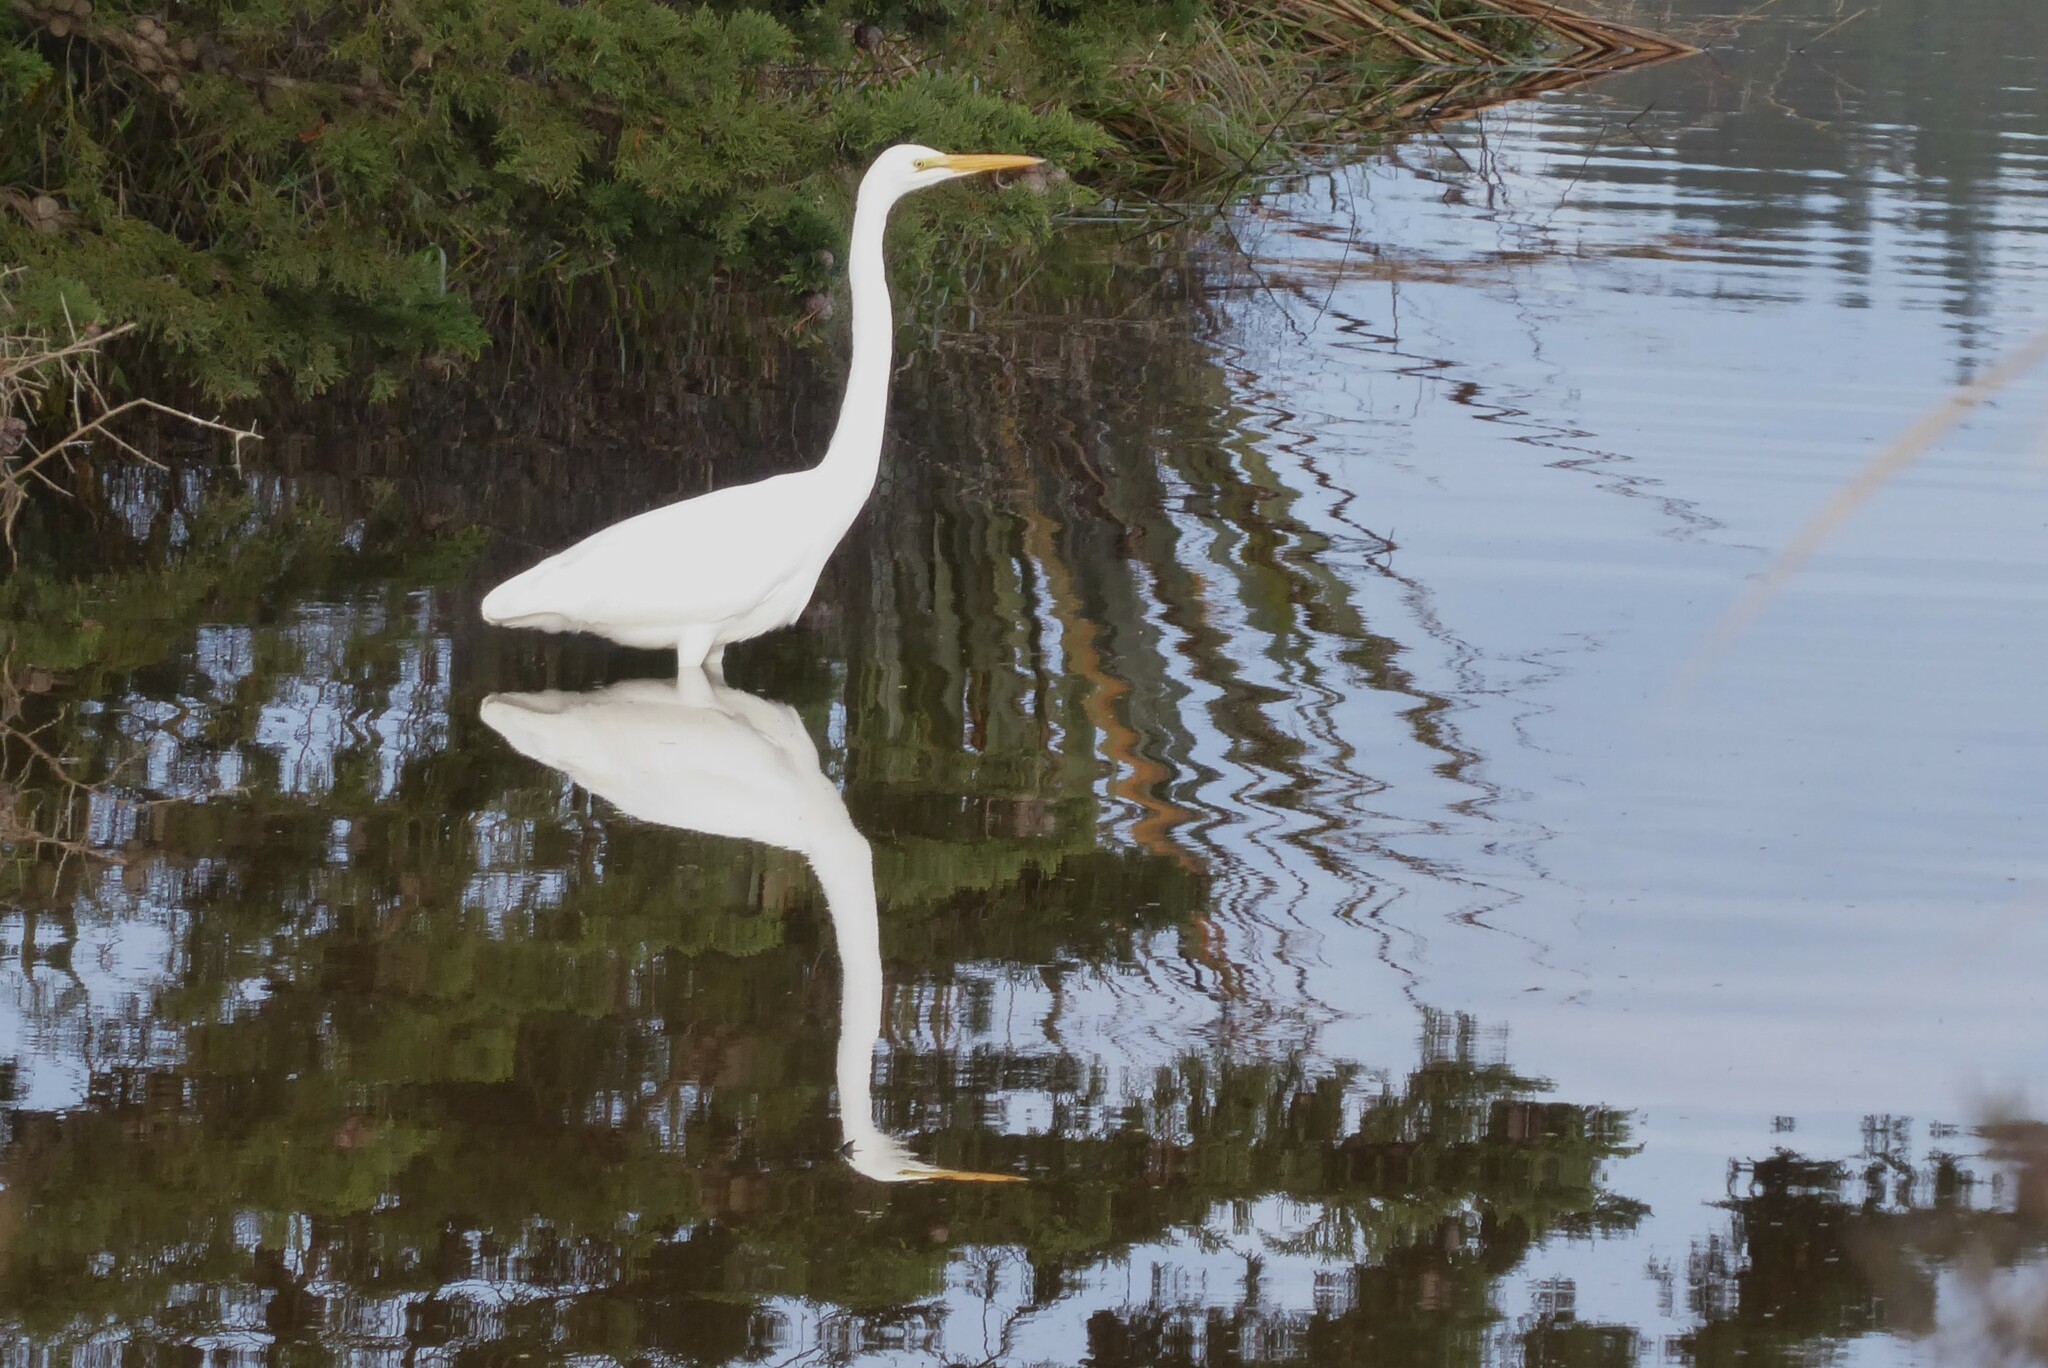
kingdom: Animalia
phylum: Chordata
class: Aves
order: Pelecaniformes
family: Ardeidae
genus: Ardea
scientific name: Ardea modesta
